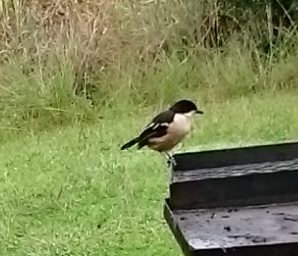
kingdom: Animalia
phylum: Chordata
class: Aves
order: Passeriformes
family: Malaconotidae
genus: Laniarius
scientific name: Laniarius ferrugineus
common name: Southern boubou
